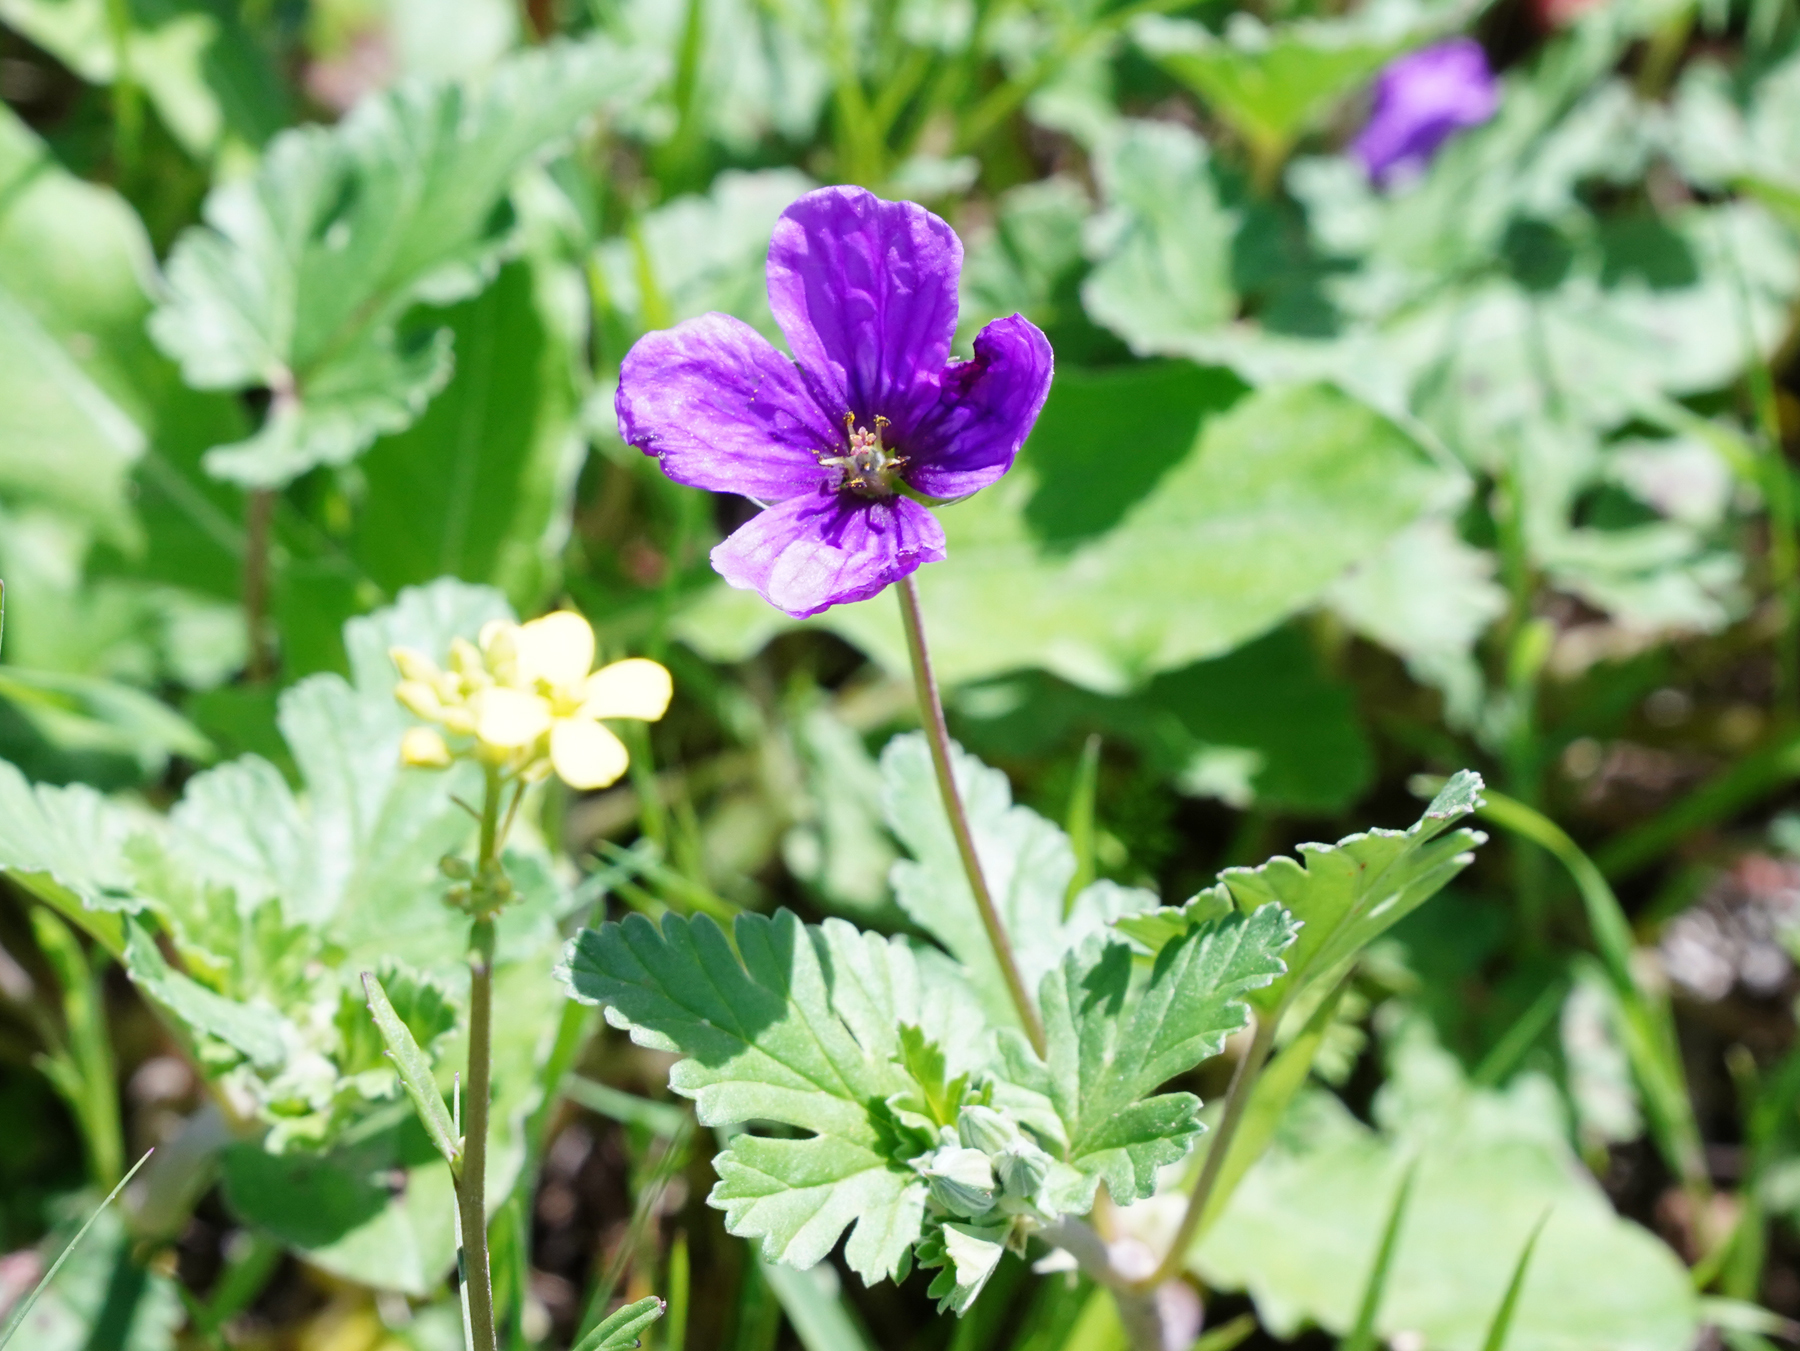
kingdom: Plantae
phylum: Tracheophyta
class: Magnoliopsida
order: Geraniales
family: Geraniaceae
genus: Erodium
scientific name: Erodium texanum
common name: Texas stork's-bill
